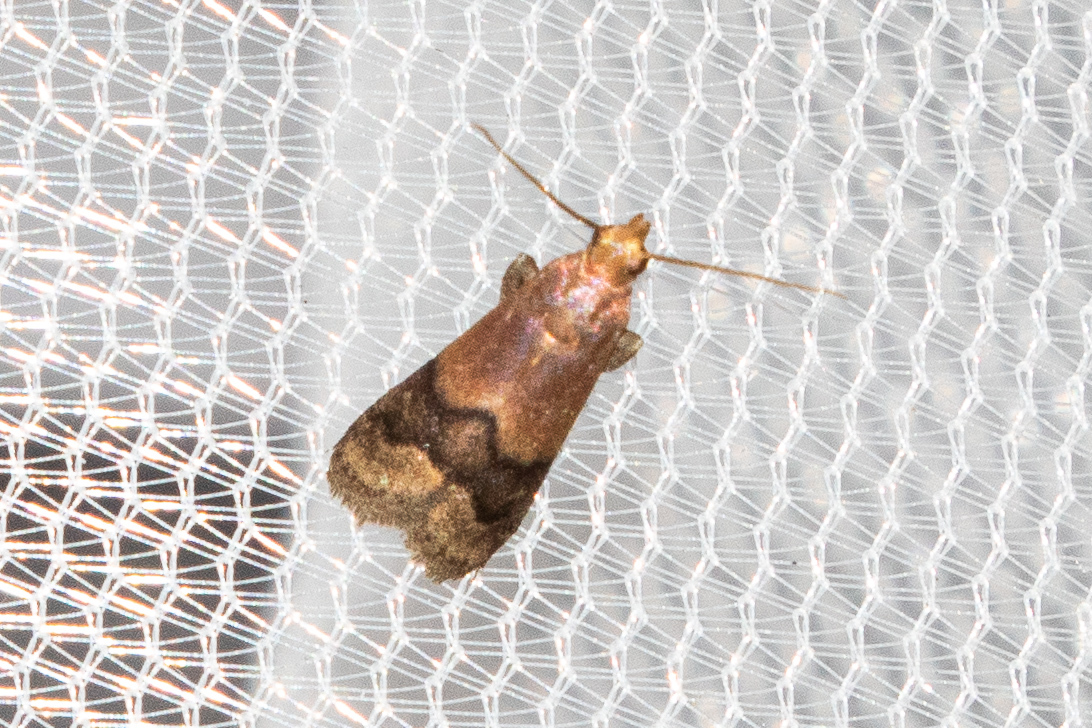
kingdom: Animalia
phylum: Arthropoda
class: Insecta
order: Lepidoptera
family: Pyralidae
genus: Eulogia
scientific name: Eulogia ochrifrontella
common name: Broad-banded eulogia moth
